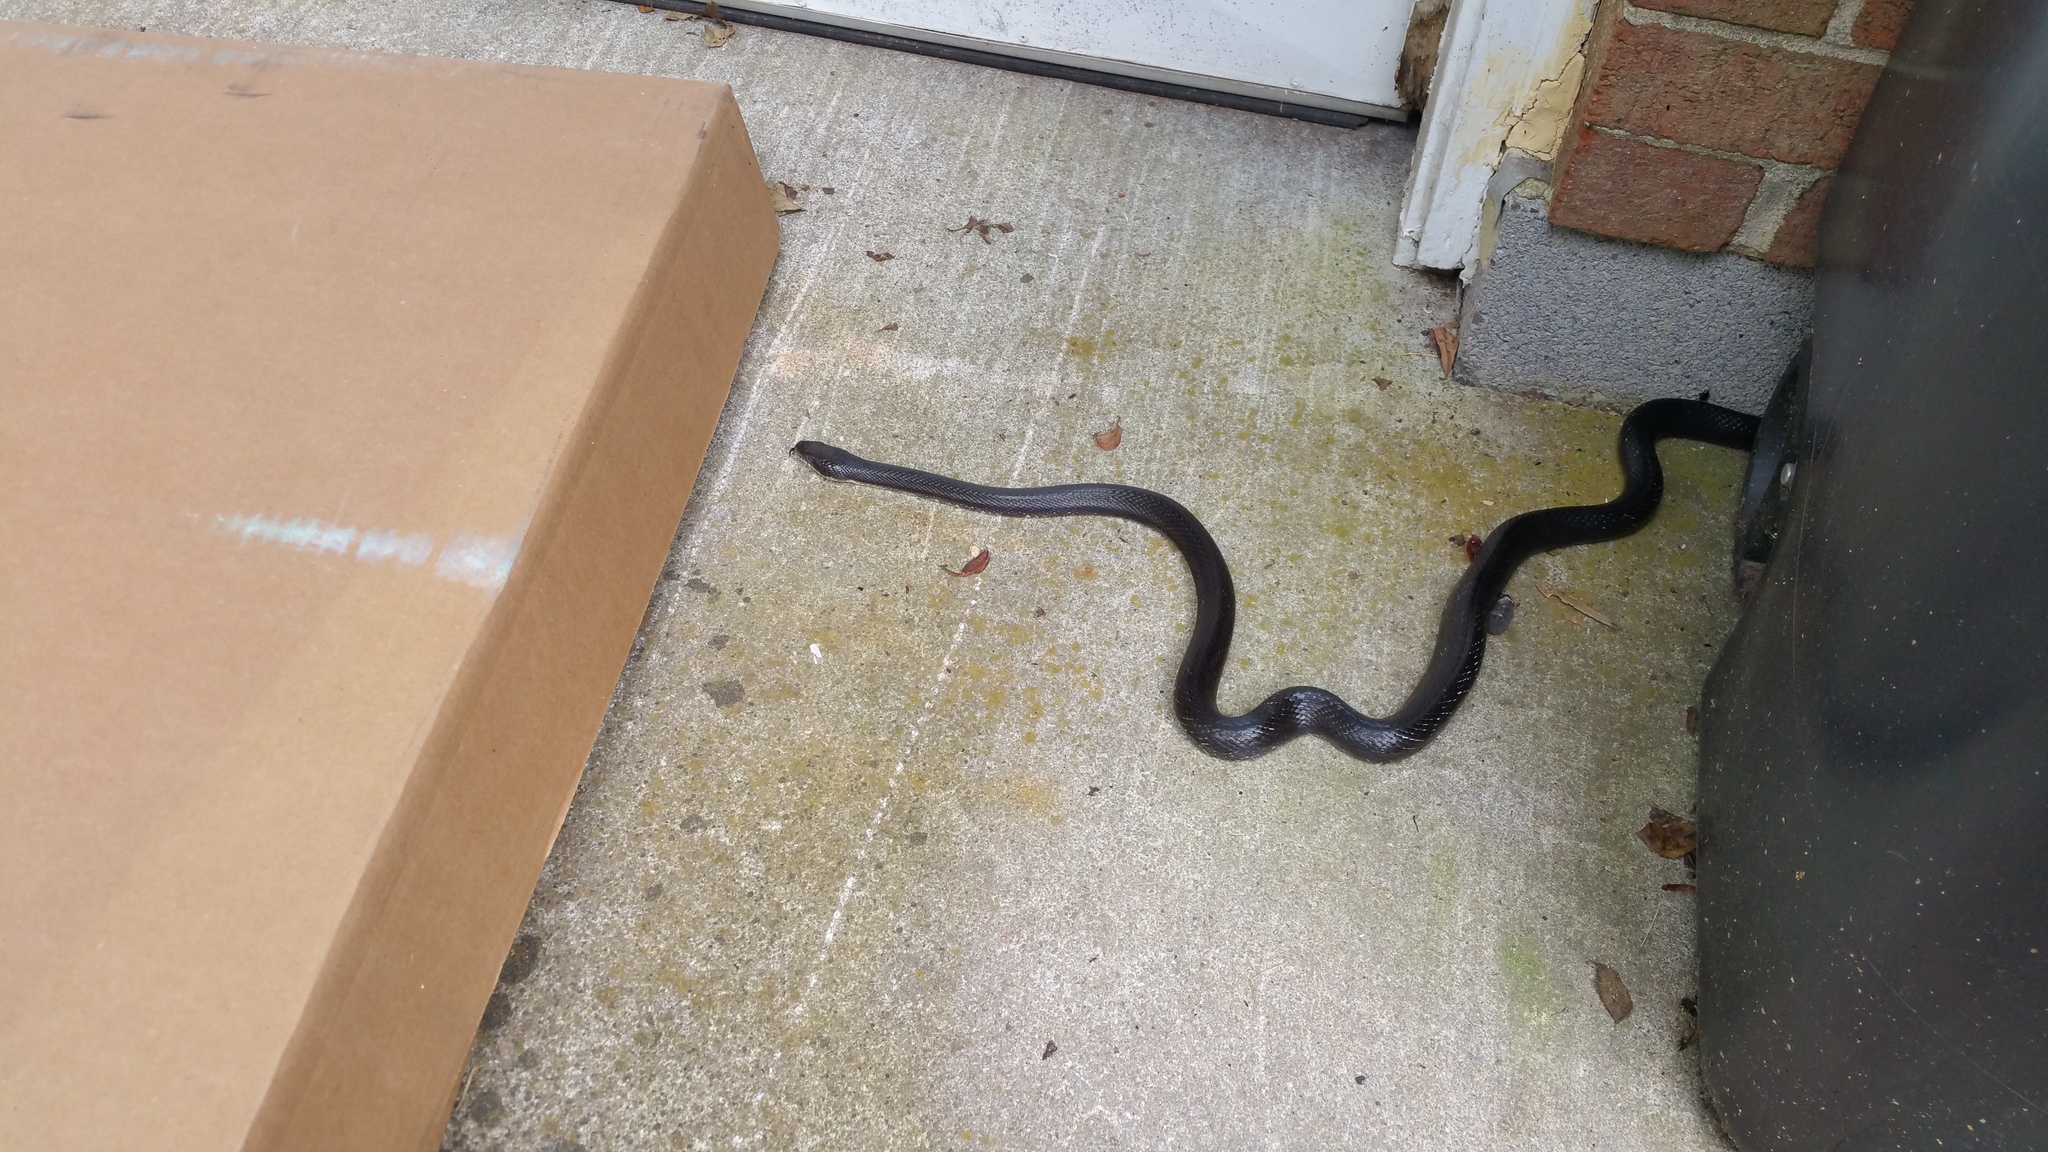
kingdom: Animalia
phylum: Chordata
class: Squamata
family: Colubridae
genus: Pantherophis
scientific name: Pantherophis alleghaniensis
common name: Eastern rat snake
